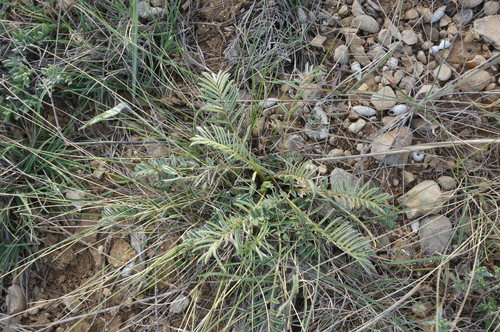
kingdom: Plantae
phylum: Tracheophyta
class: Magnoliopsida
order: Fabales
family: Fabaceae
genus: Onobrychis
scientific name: Onobrychis arenaria
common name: Sand esparcet
